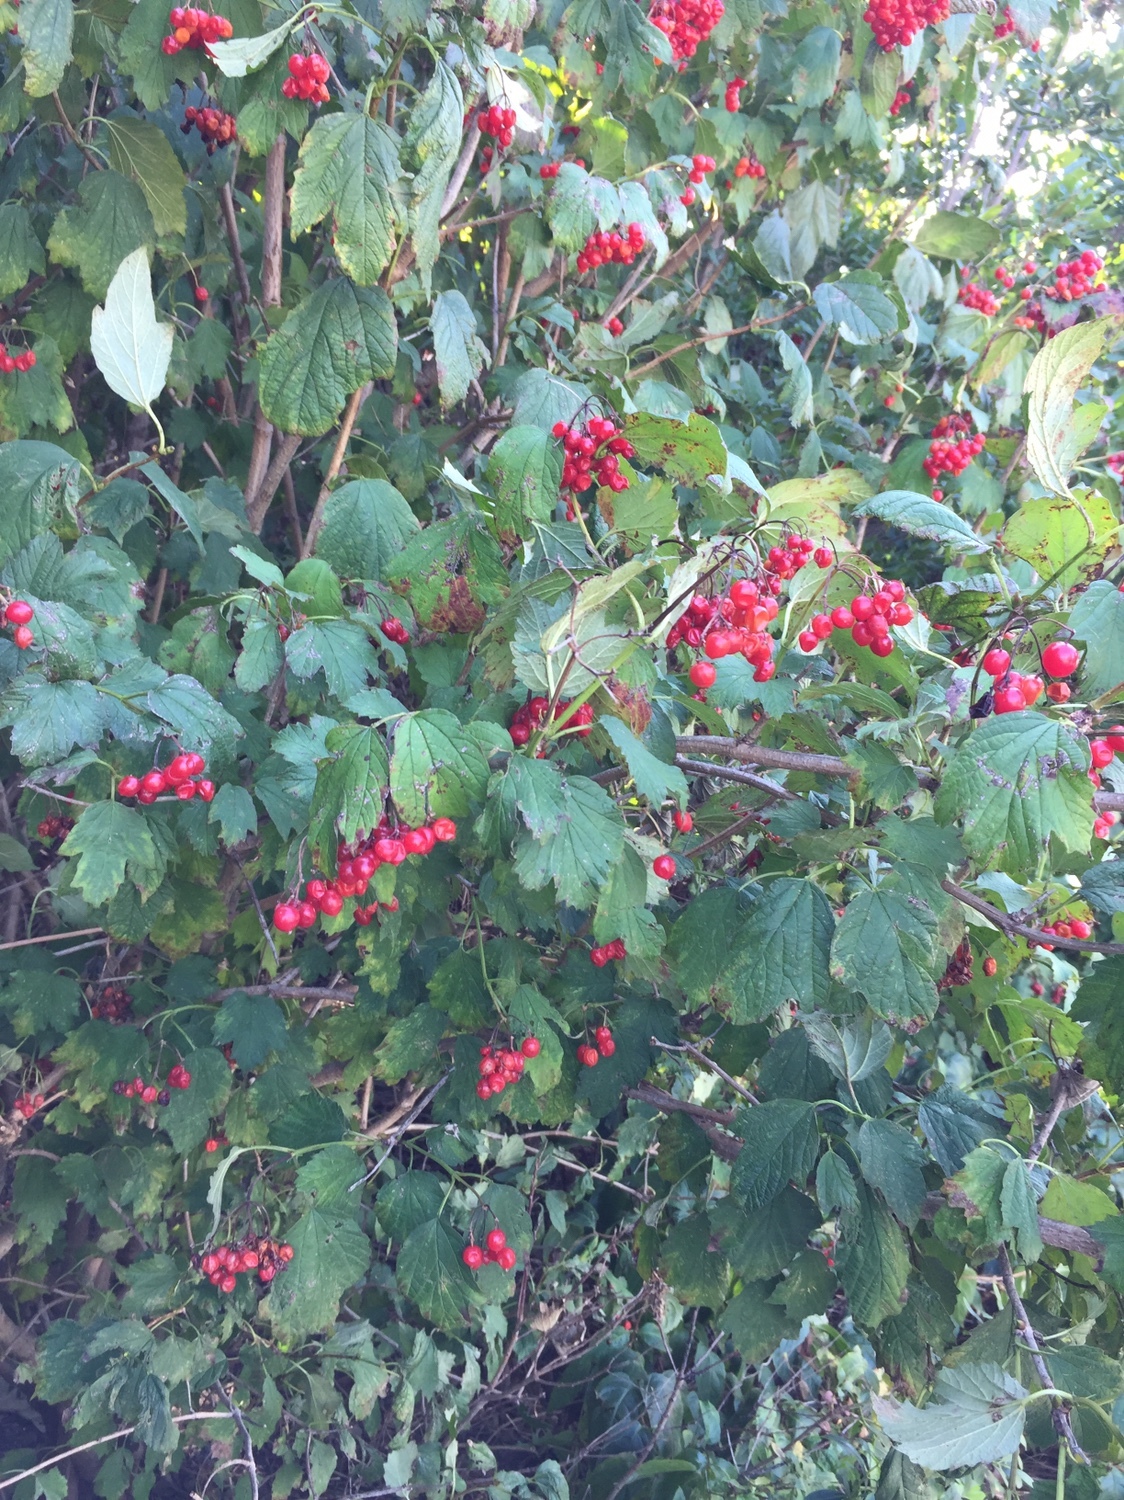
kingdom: Plantae
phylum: Tracheophyta
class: Magnoliopsida
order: Dipsacales
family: Viburnaceae
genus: Viburnum
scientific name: Viburnum opulus
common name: Guelder-rose
